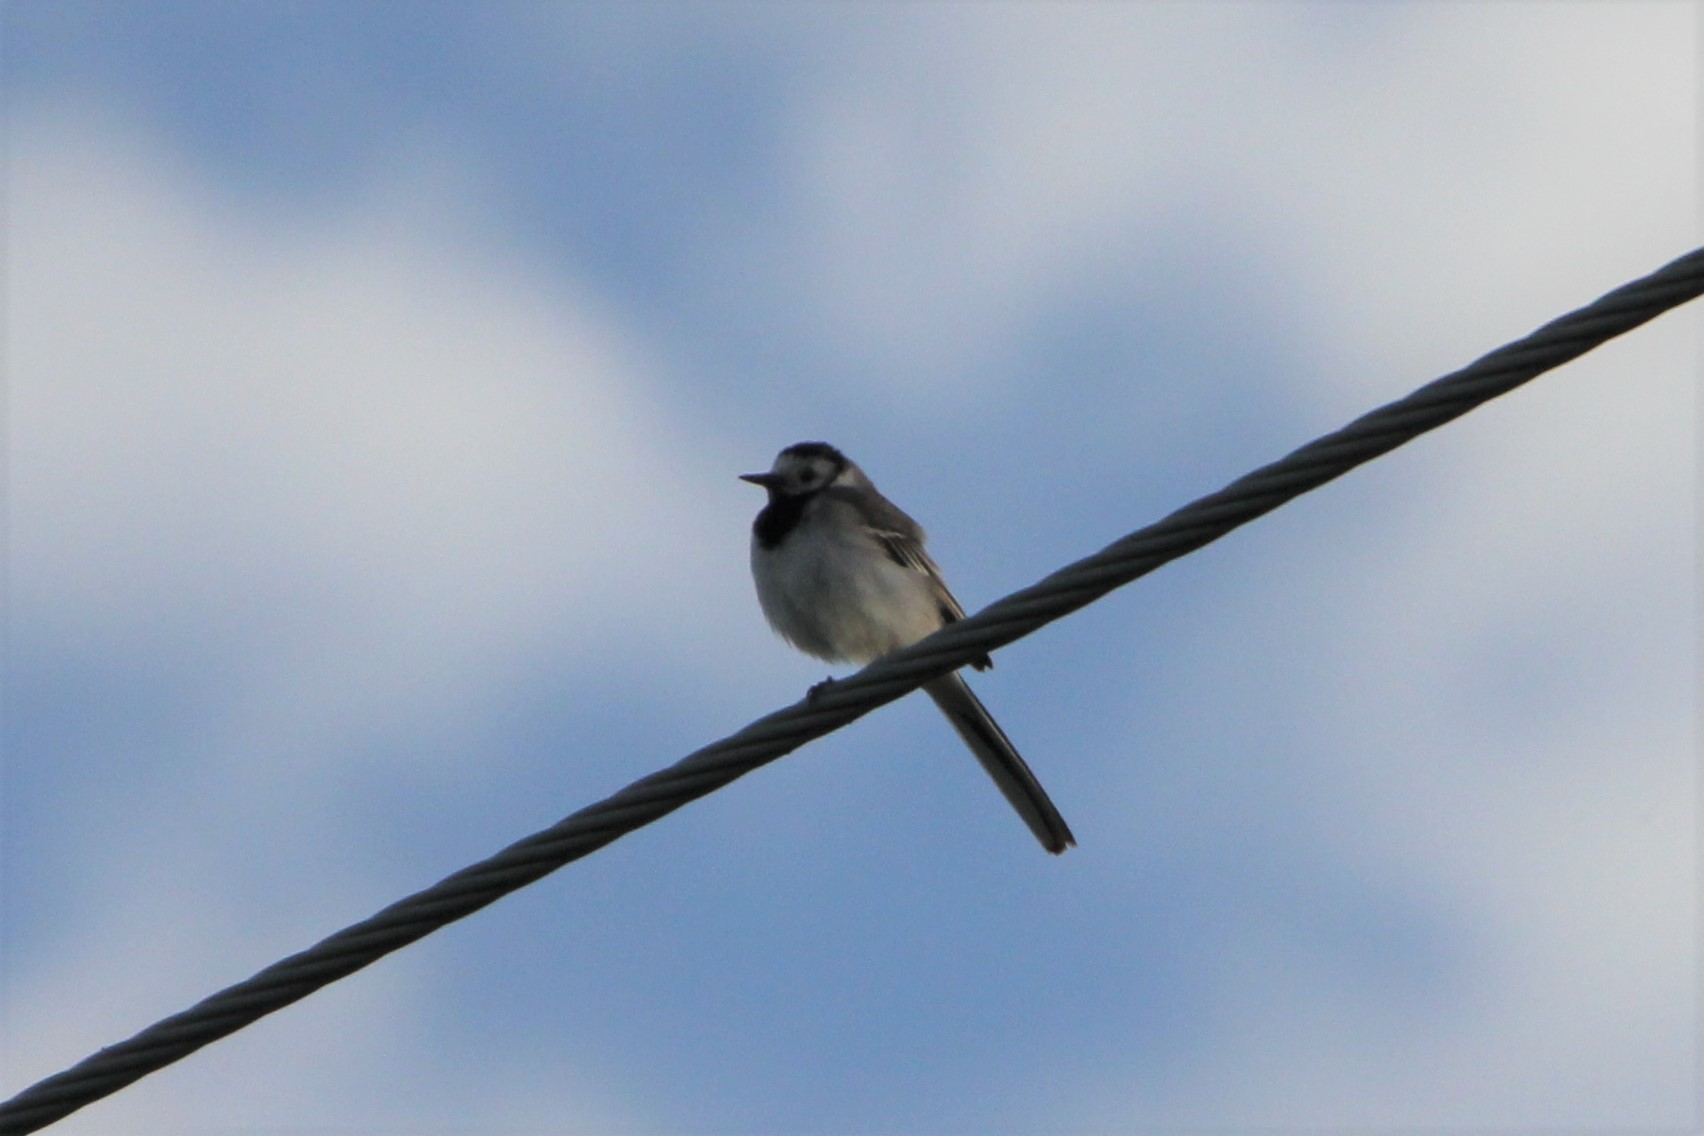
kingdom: Animalia
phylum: Chordata
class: Aves
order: Passeriformes
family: Motacillidae
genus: Motacilla
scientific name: Motacilla alba
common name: White wagtail
